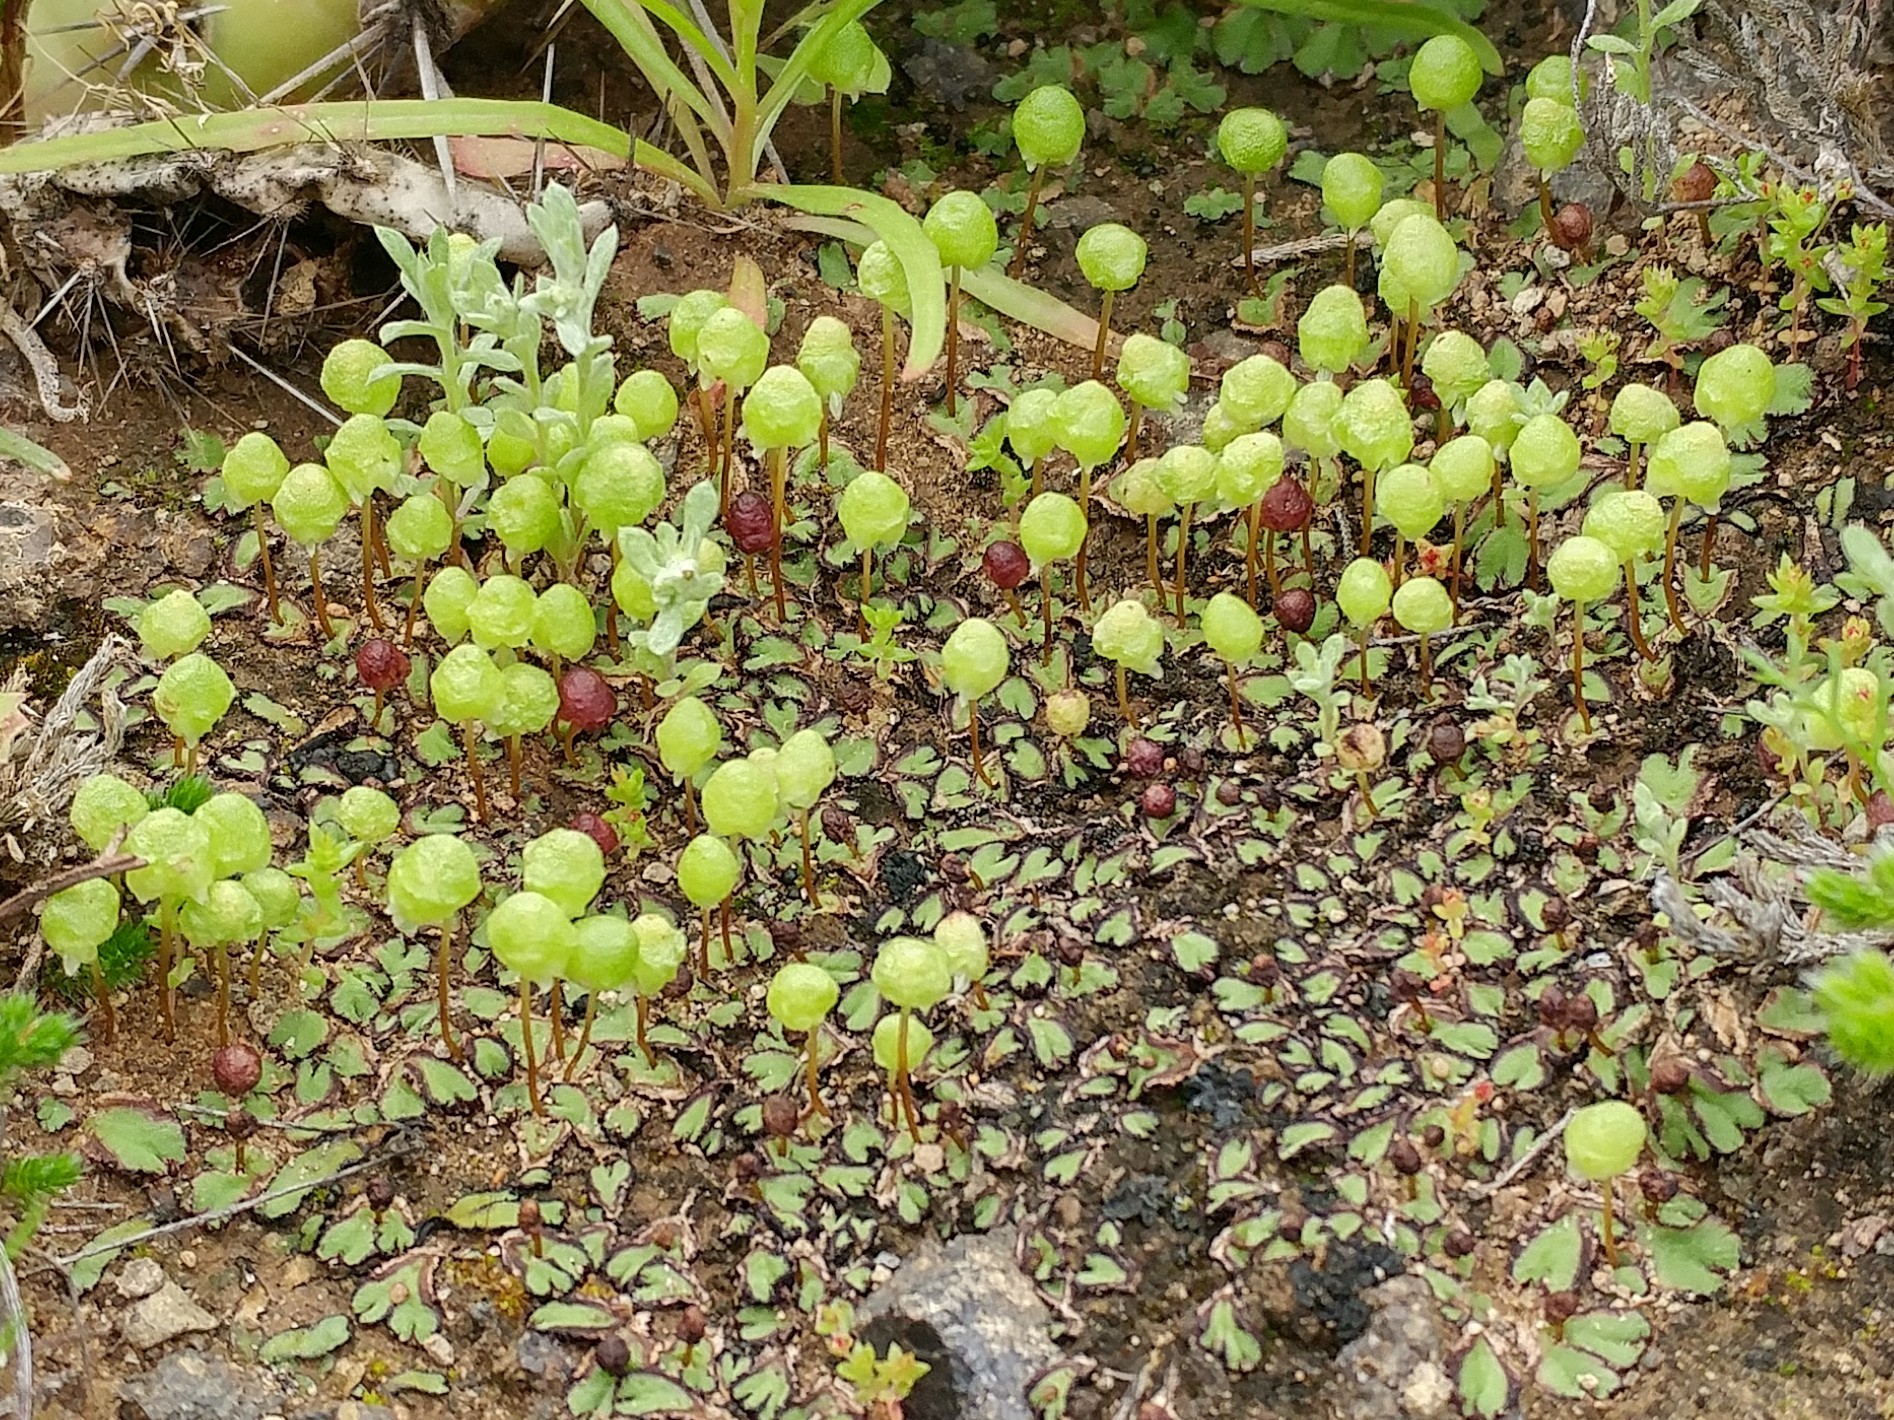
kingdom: Plantae
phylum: Marchantiophyta
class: Marchantiopsida
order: Marchantiales
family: Aytoniaceae
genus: Asterella
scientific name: Asterella palmeri
